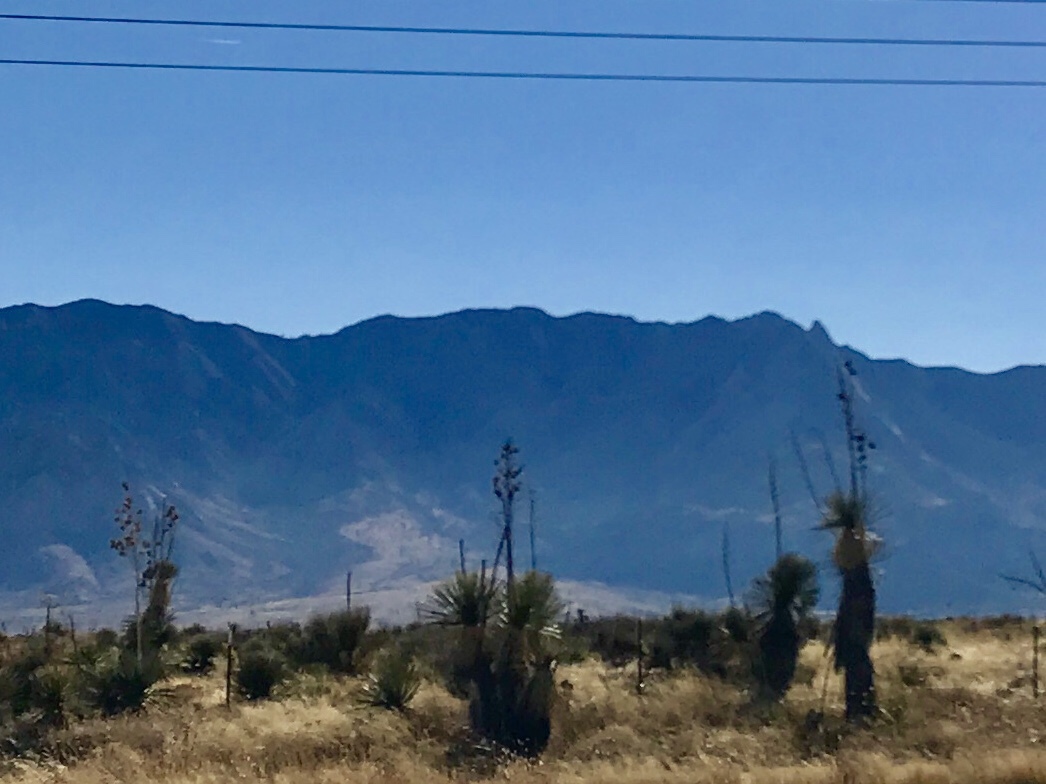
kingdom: Plantae
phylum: Tracheophyta
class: Liliopsida
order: Asparagales
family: Asparagaceae
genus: Yucca
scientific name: Yucca elata
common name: Palmella
